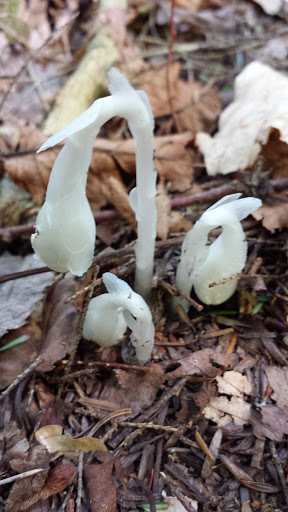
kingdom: Plantae
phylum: Tracheophyta
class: Magnoliopsida
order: Ericales
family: Ericaceae
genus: Monotropa
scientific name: Monotropa uniflora
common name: Convulsion root
